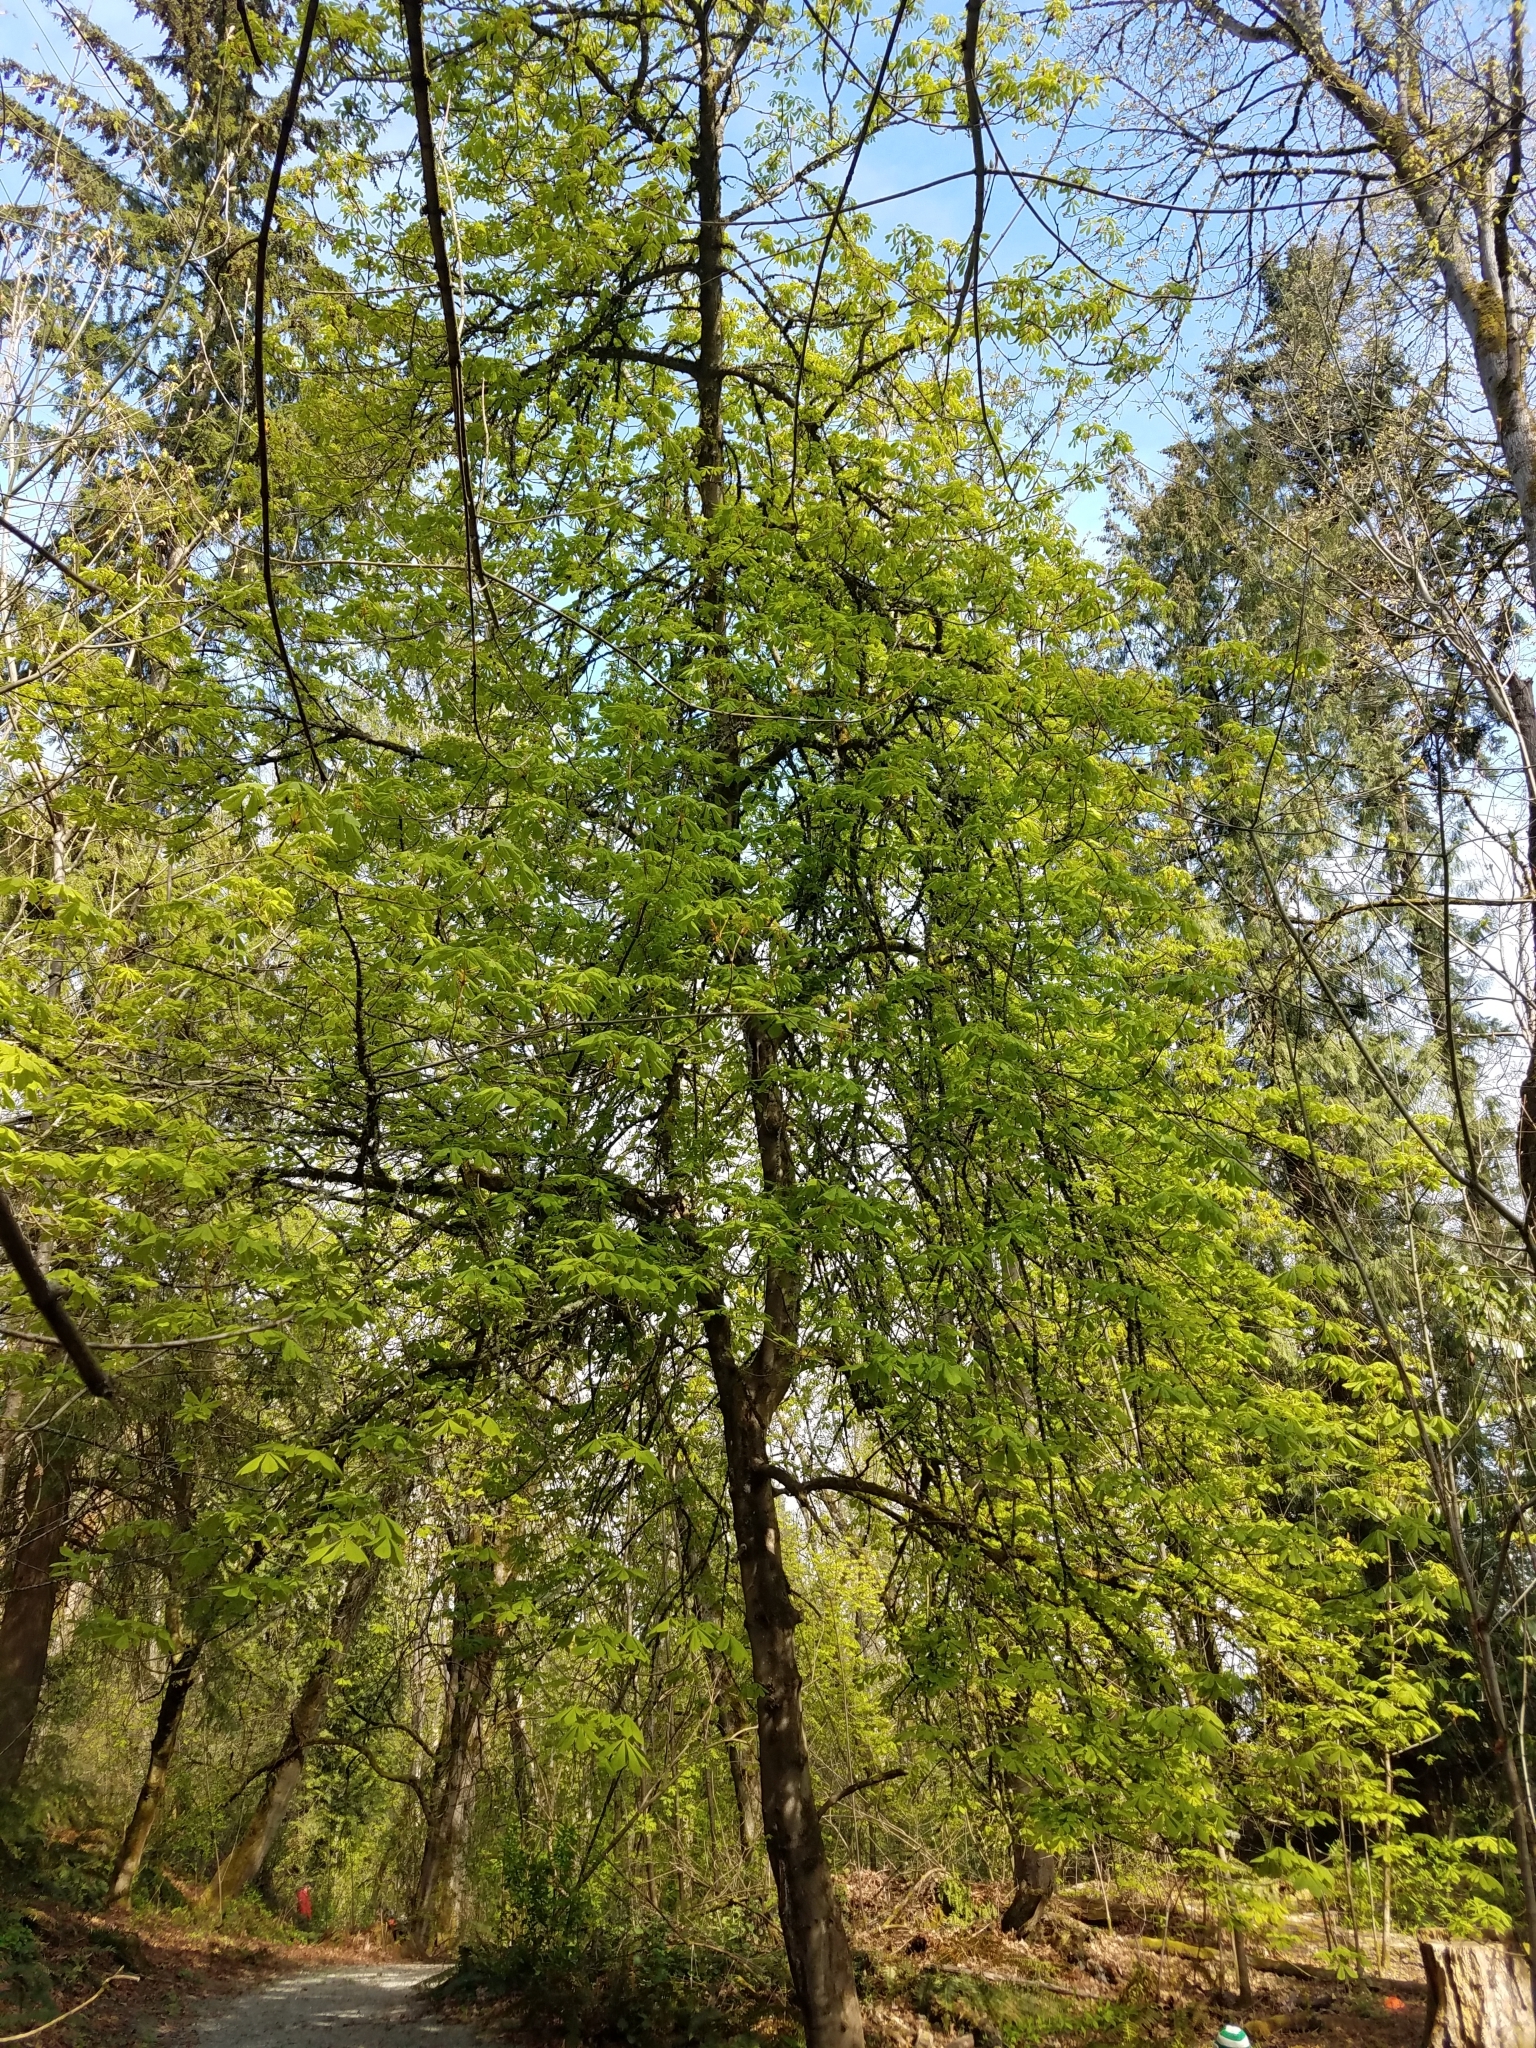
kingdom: Plantae
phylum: Tracheophyta
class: Magnoliopsida
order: Sapindales
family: Sapindaceae
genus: Aesculus
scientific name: Aesculus hippocastanum
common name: Horse-chestnut
